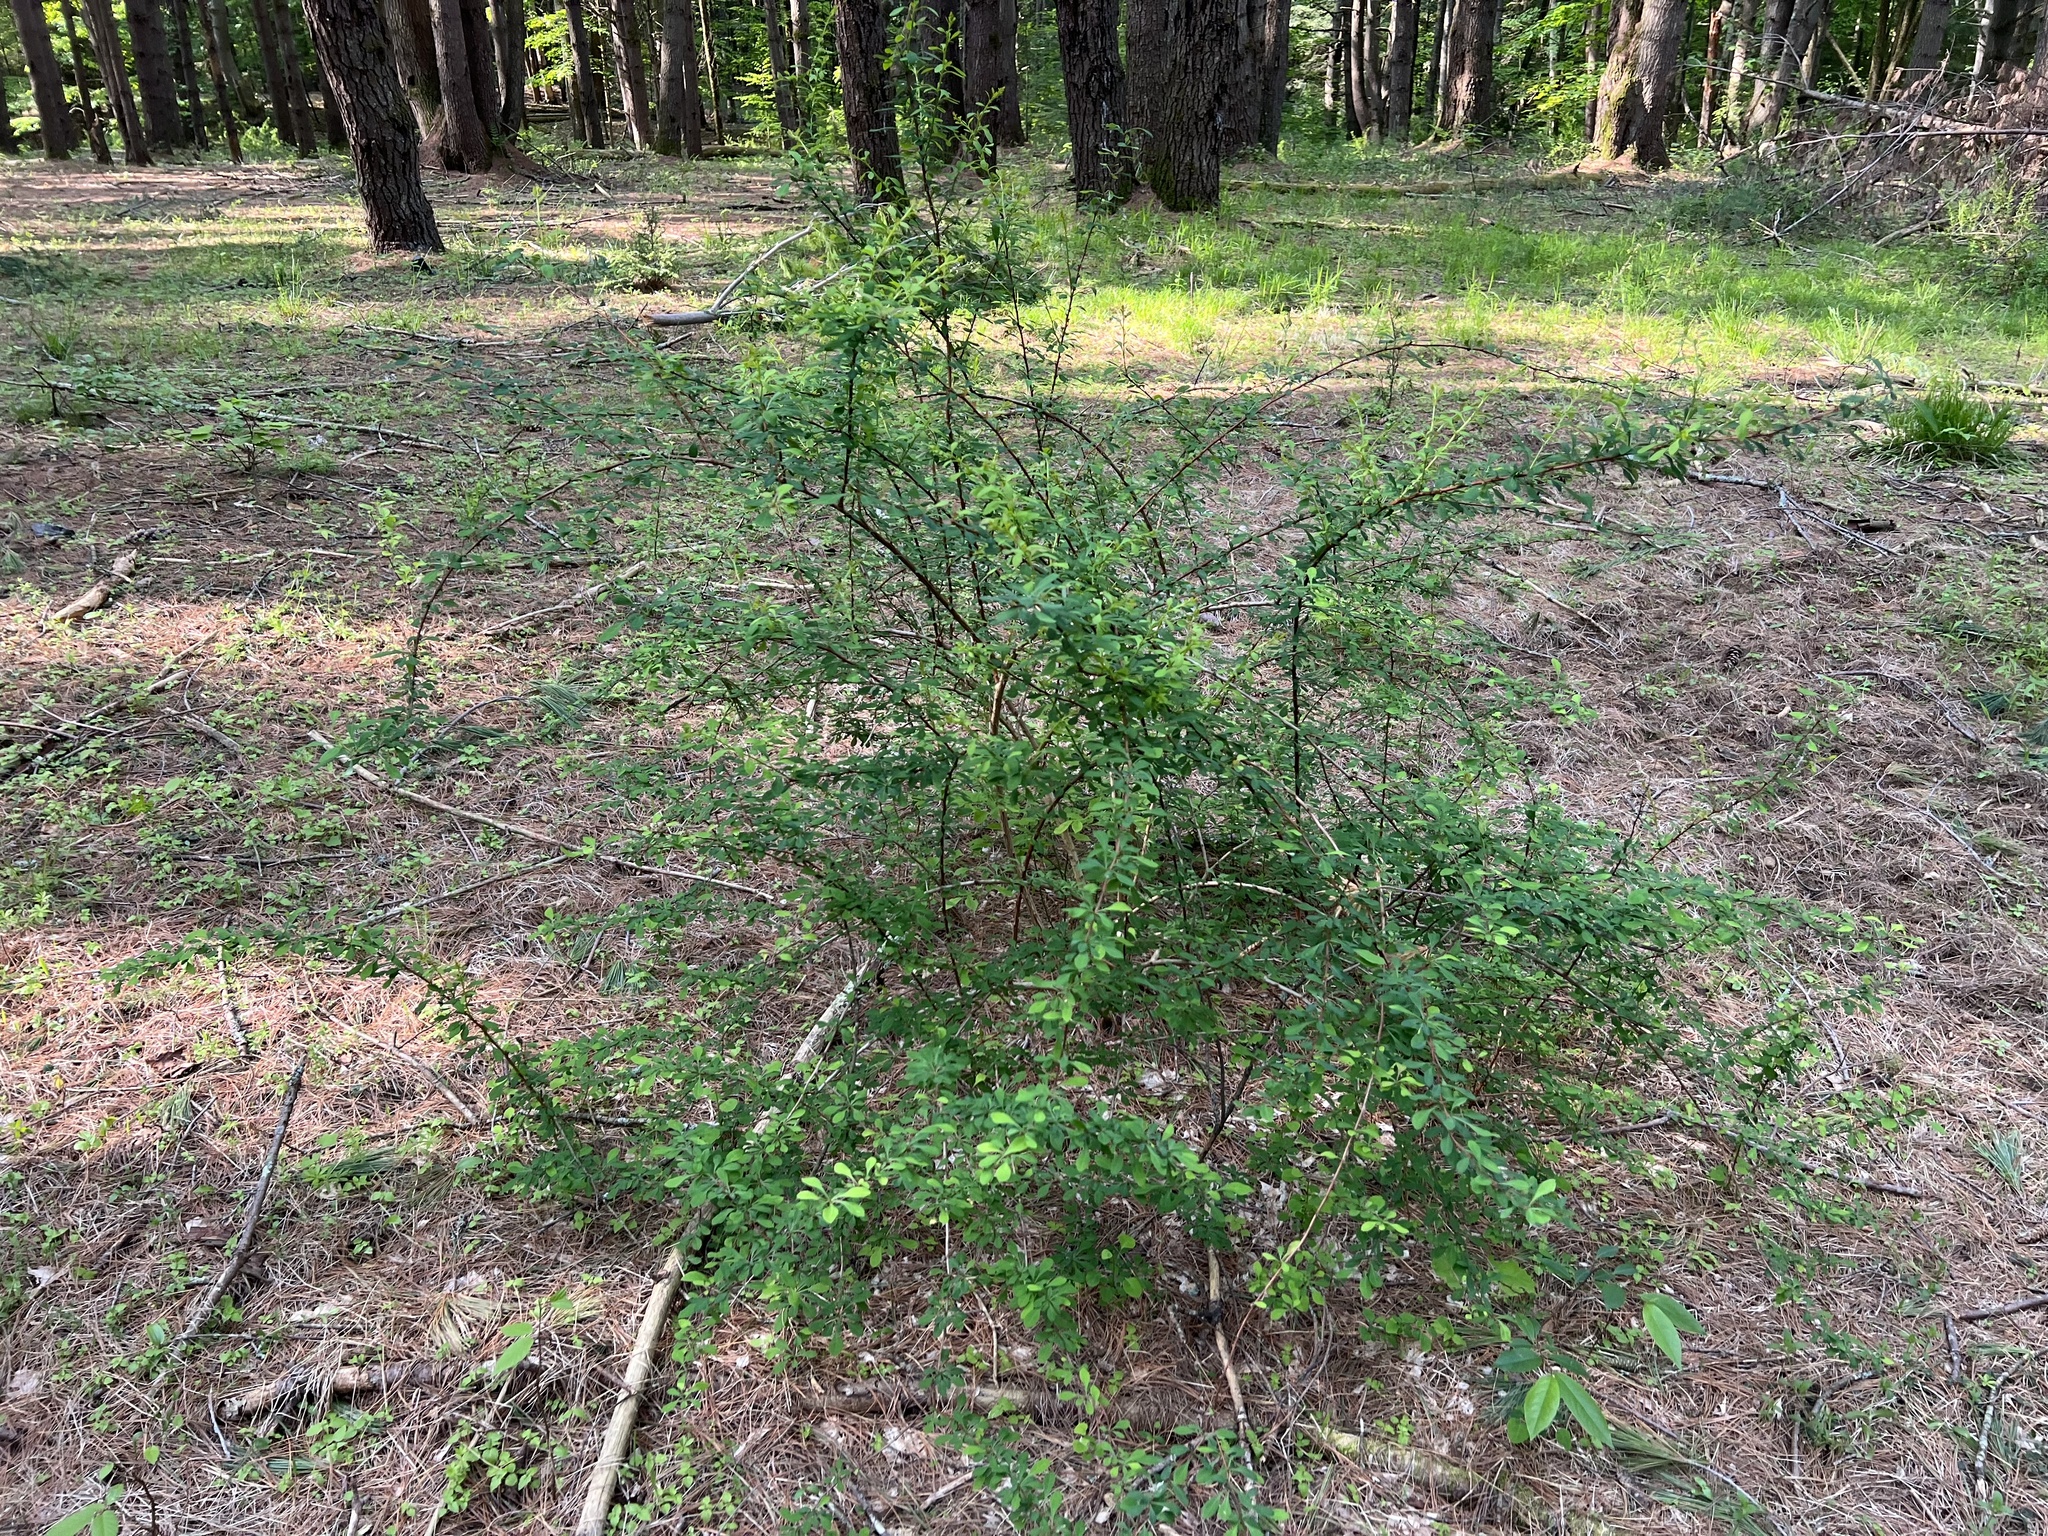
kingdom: Plantae
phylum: Tracheophyta
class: Magnoliopsida
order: Ranunculales
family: Berberidaceae
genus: Berberis
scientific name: Berberis thunbergii
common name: Japanese barberry
